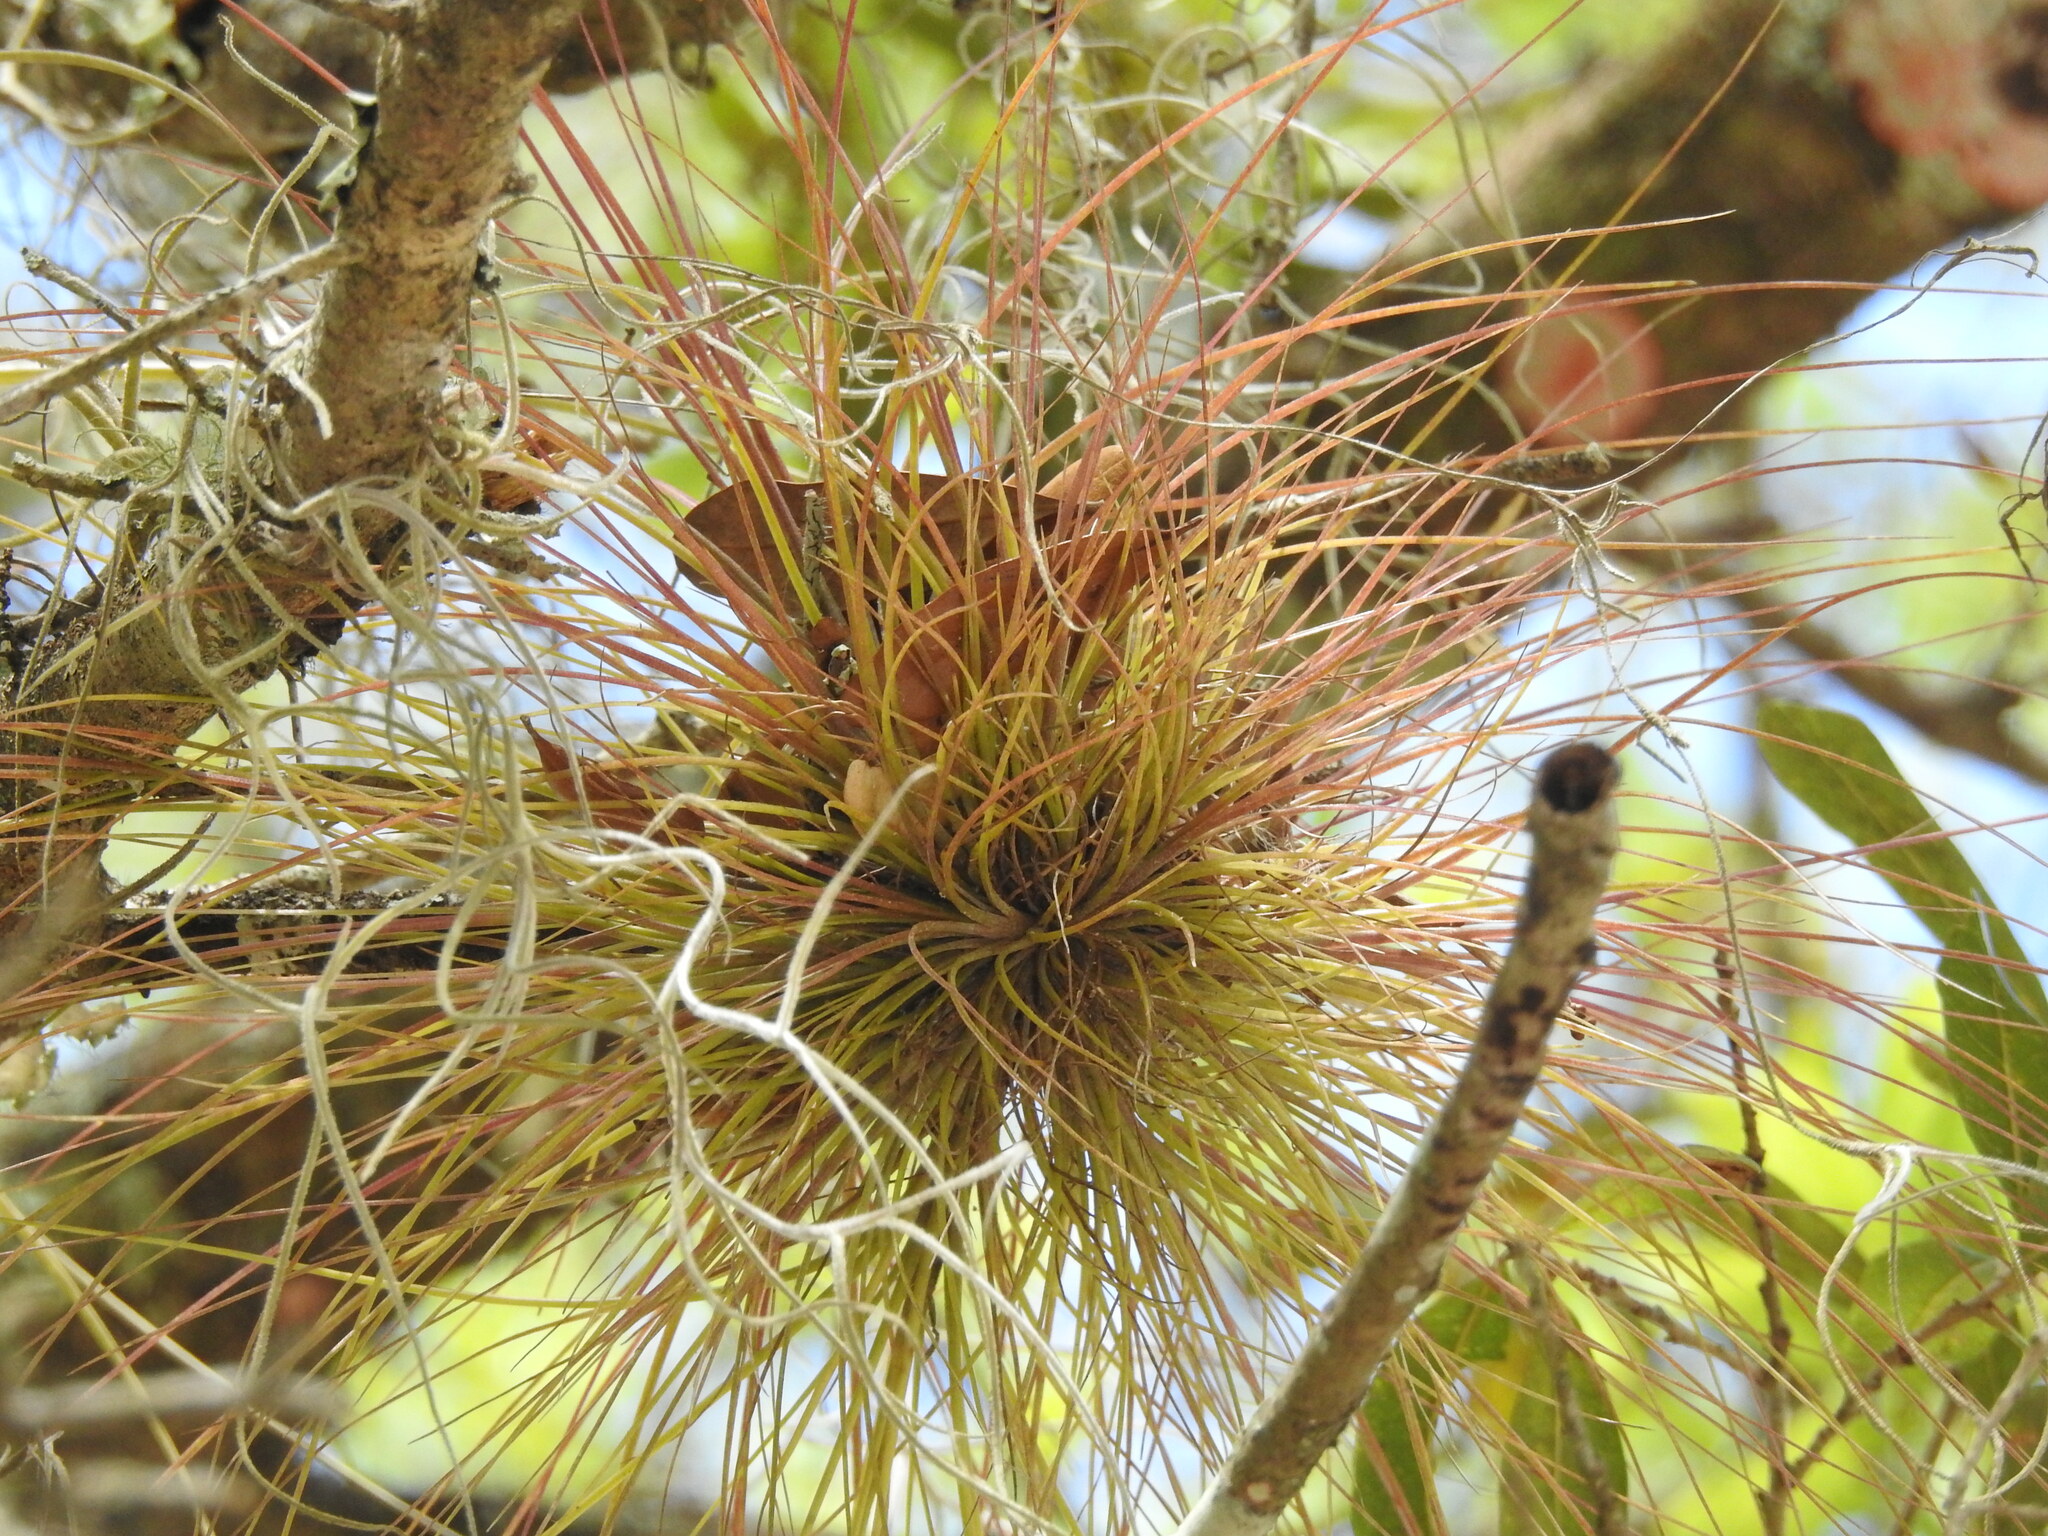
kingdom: Plantae
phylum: Tracheophyta
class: Liliopsida
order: Poales
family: Bromeliaceae
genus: Tillandsia
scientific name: Tillandsia setacea
